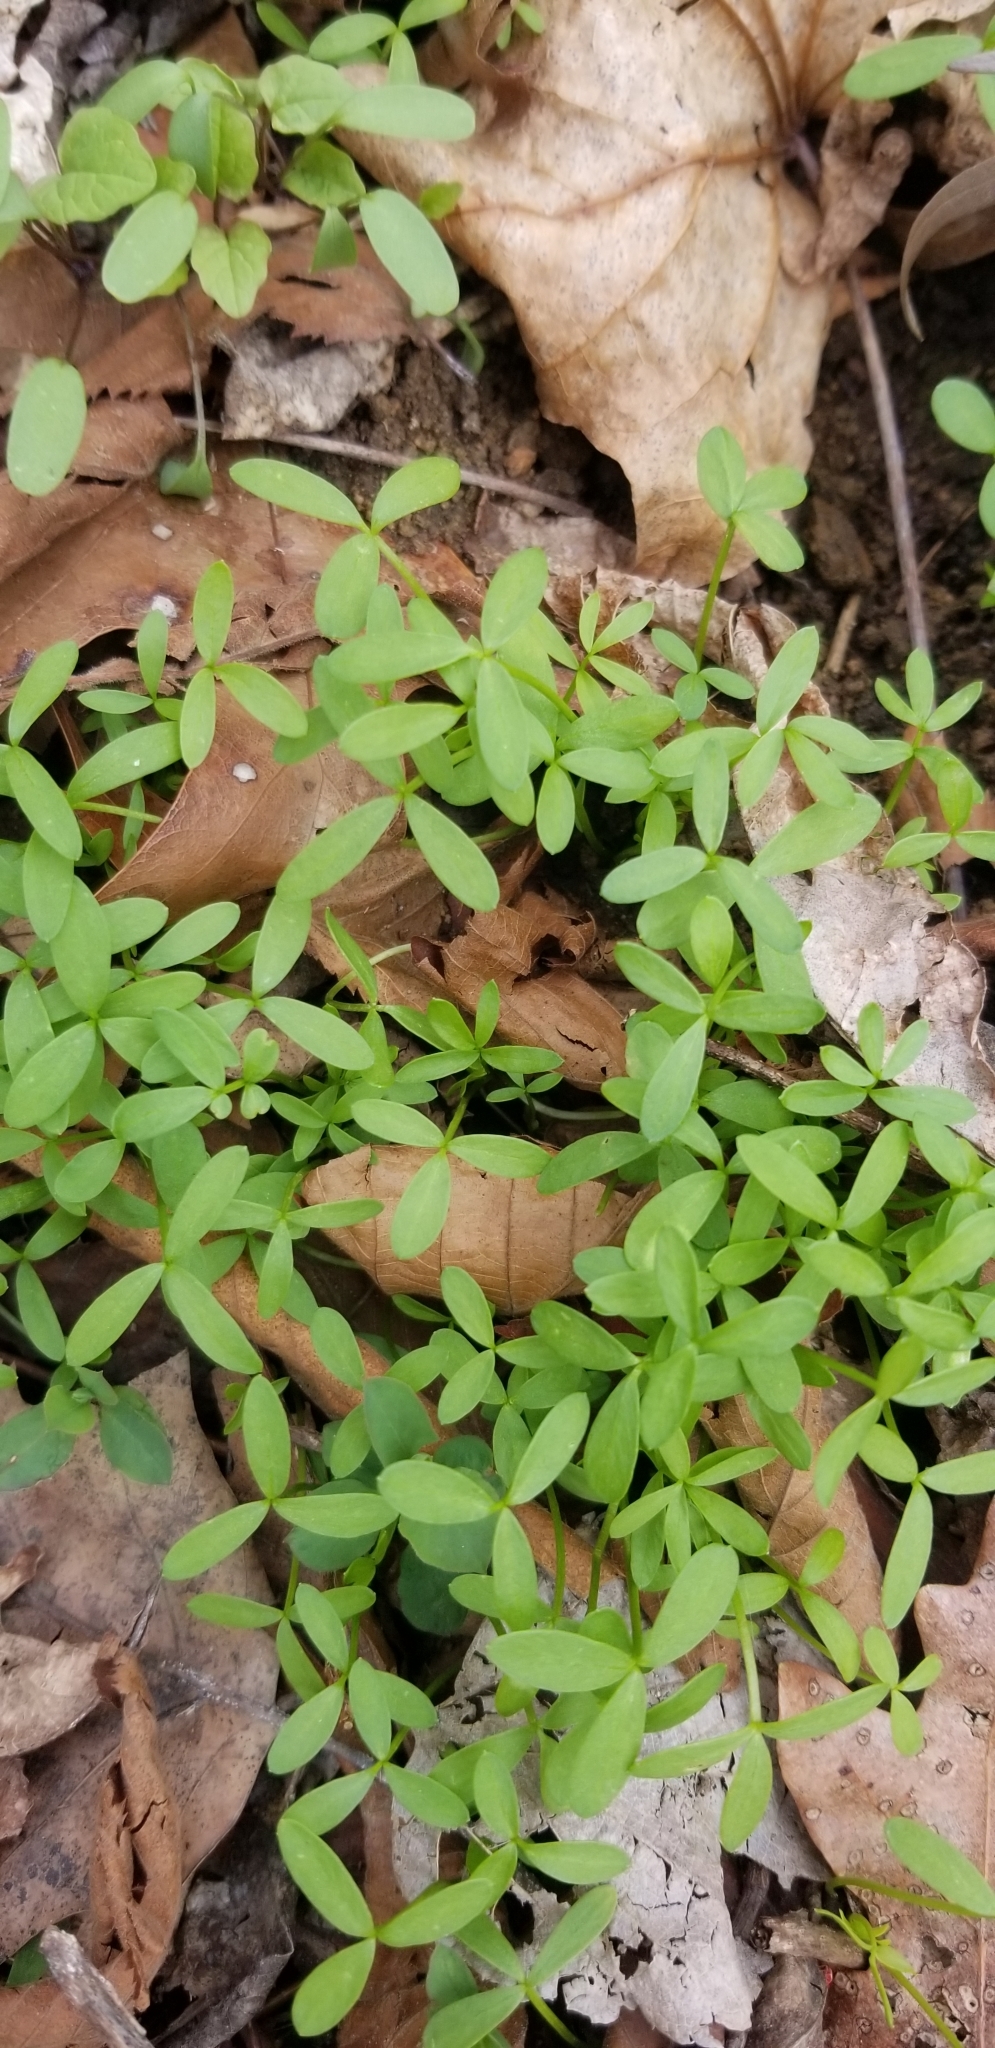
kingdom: Plantae
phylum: Tracheophyta
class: Magnoliopsida
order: Brassicales
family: Limnanthaceae
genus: Floerkea
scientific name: Floerkea proserpinacoides
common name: False mermaid
